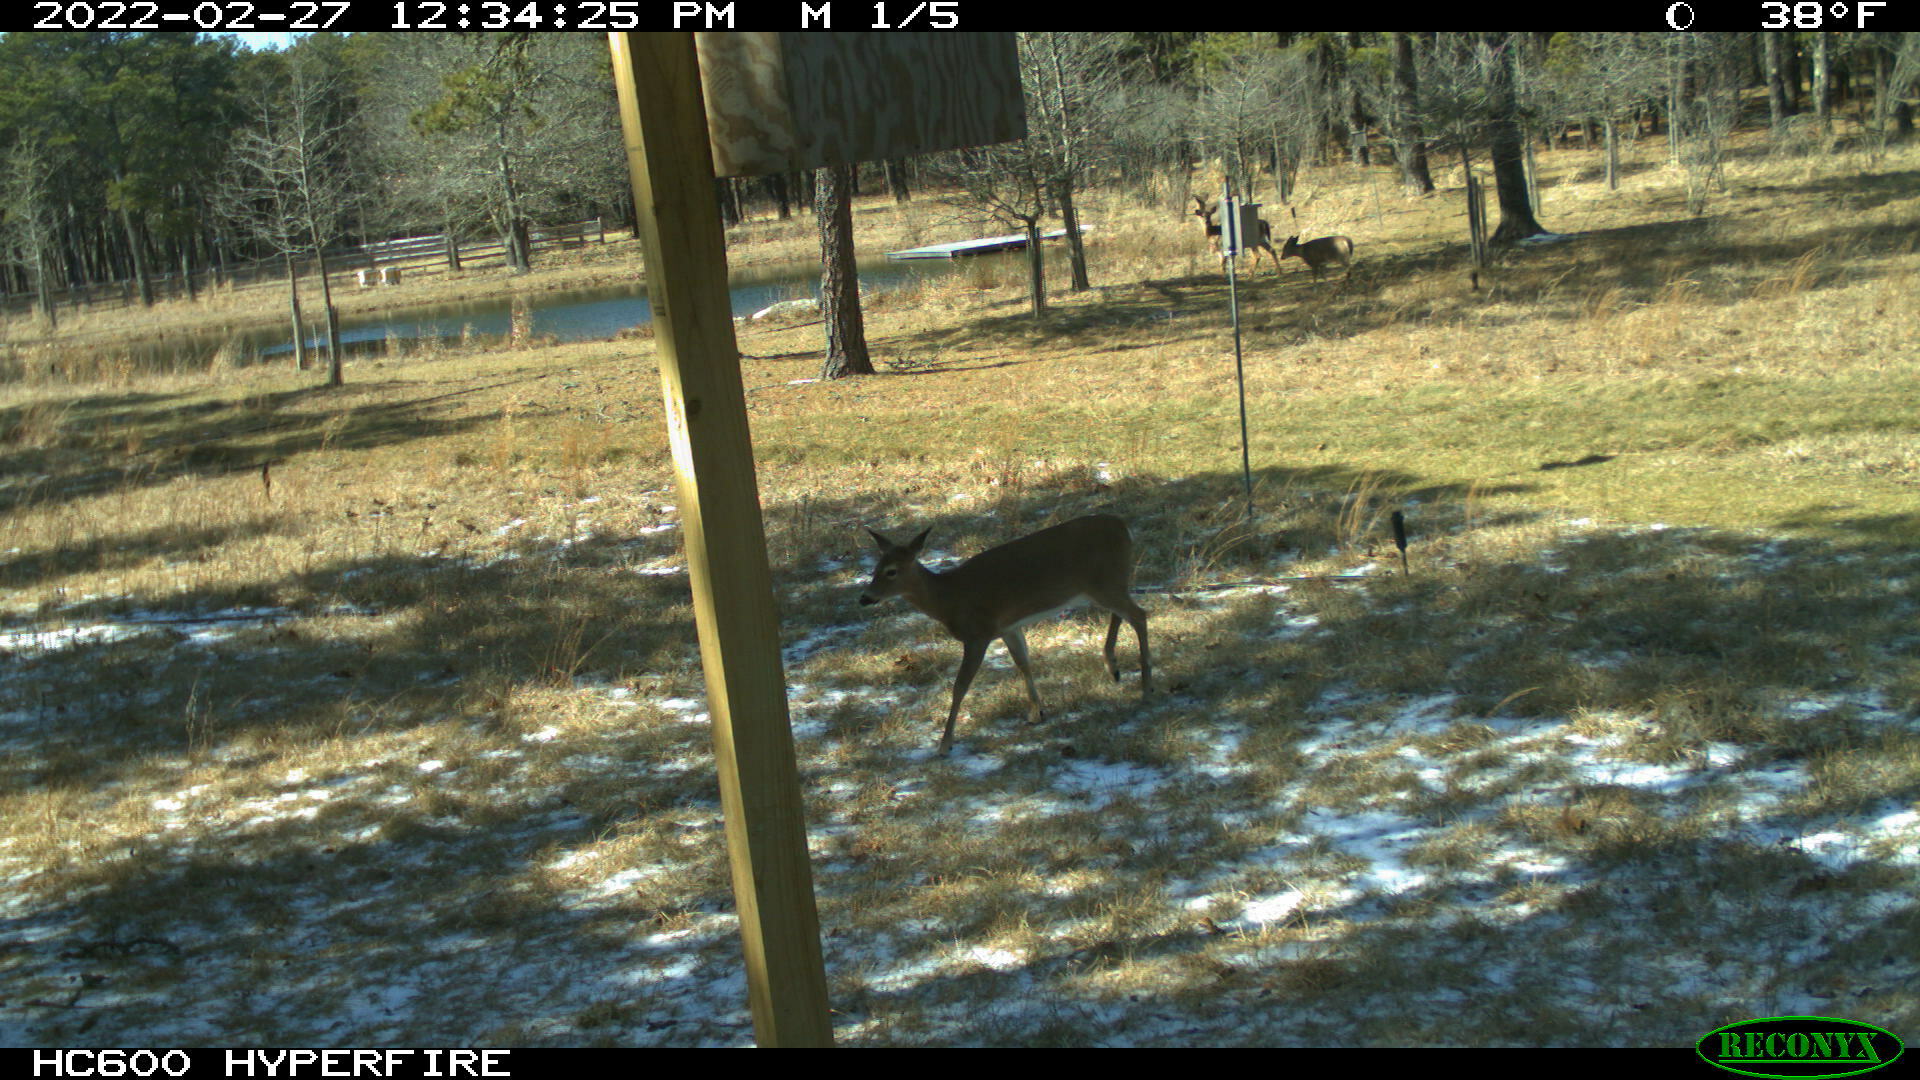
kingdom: Animalia
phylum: Chordata
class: Mammalia
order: Artiodactyla
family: Cervidae
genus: Odocoileus
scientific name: Odocoileus virginianus
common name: White-tailed deer
